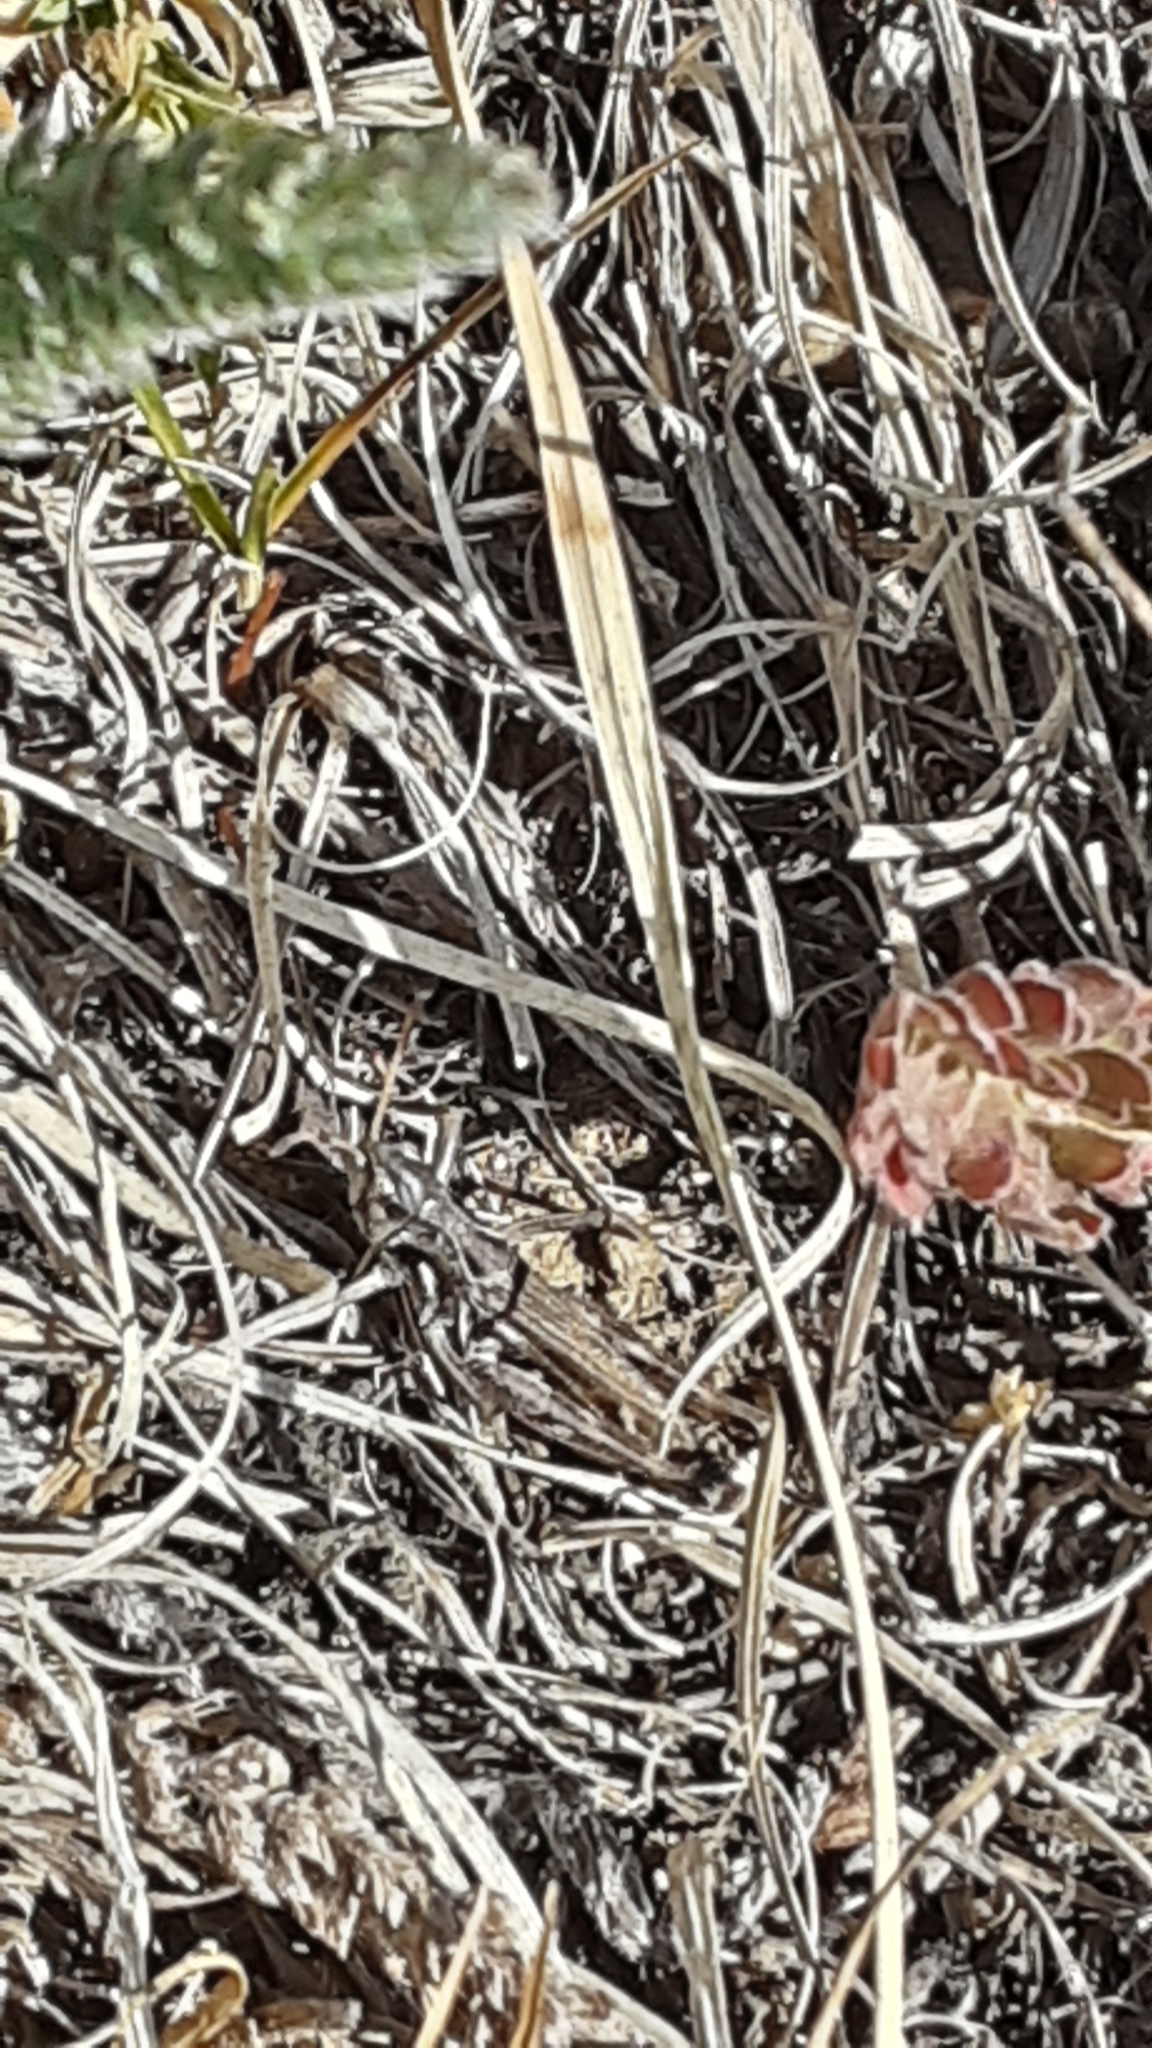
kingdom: Animalia
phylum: Arthropoda
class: Insecta
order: Orthoptera
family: Acrididae
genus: Aeropedellus
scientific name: Aeropedellus clavatus
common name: Clubhorned grasshopper
